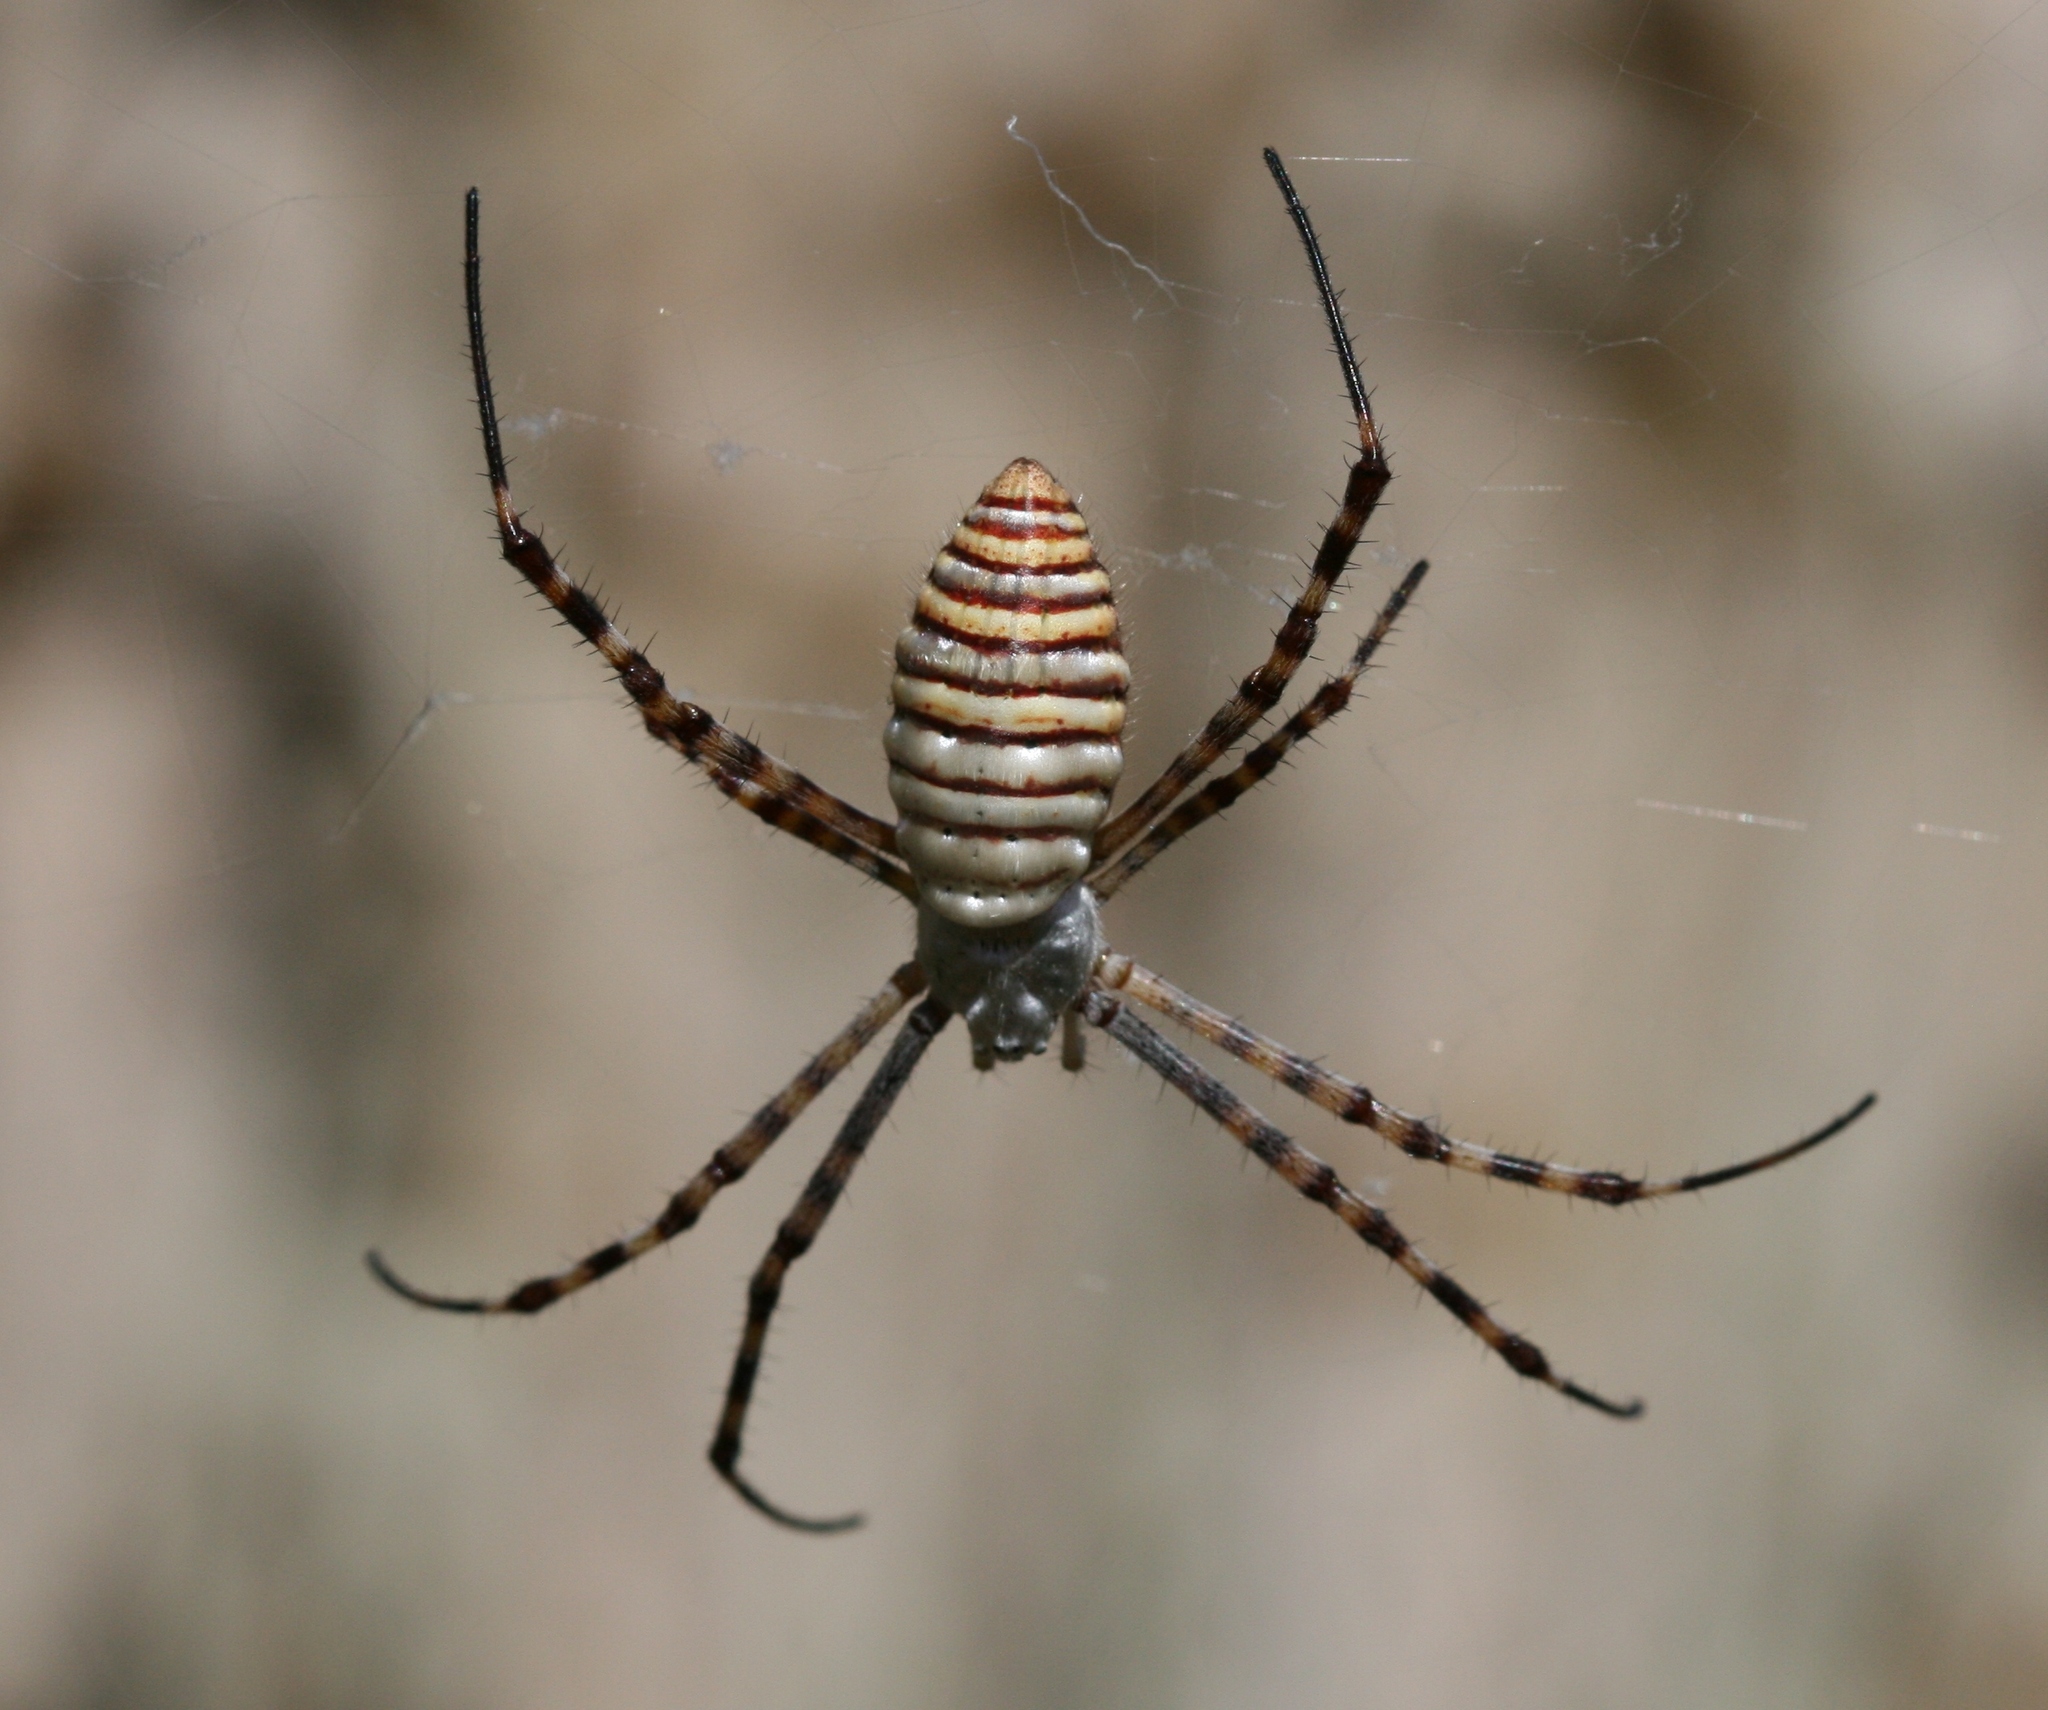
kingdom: Animalia
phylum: Arthropoda
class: Arachnida
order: Araneae
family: Araneidae
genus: Argiope
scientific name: Argiope trifasciata
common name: Banded garden spider
